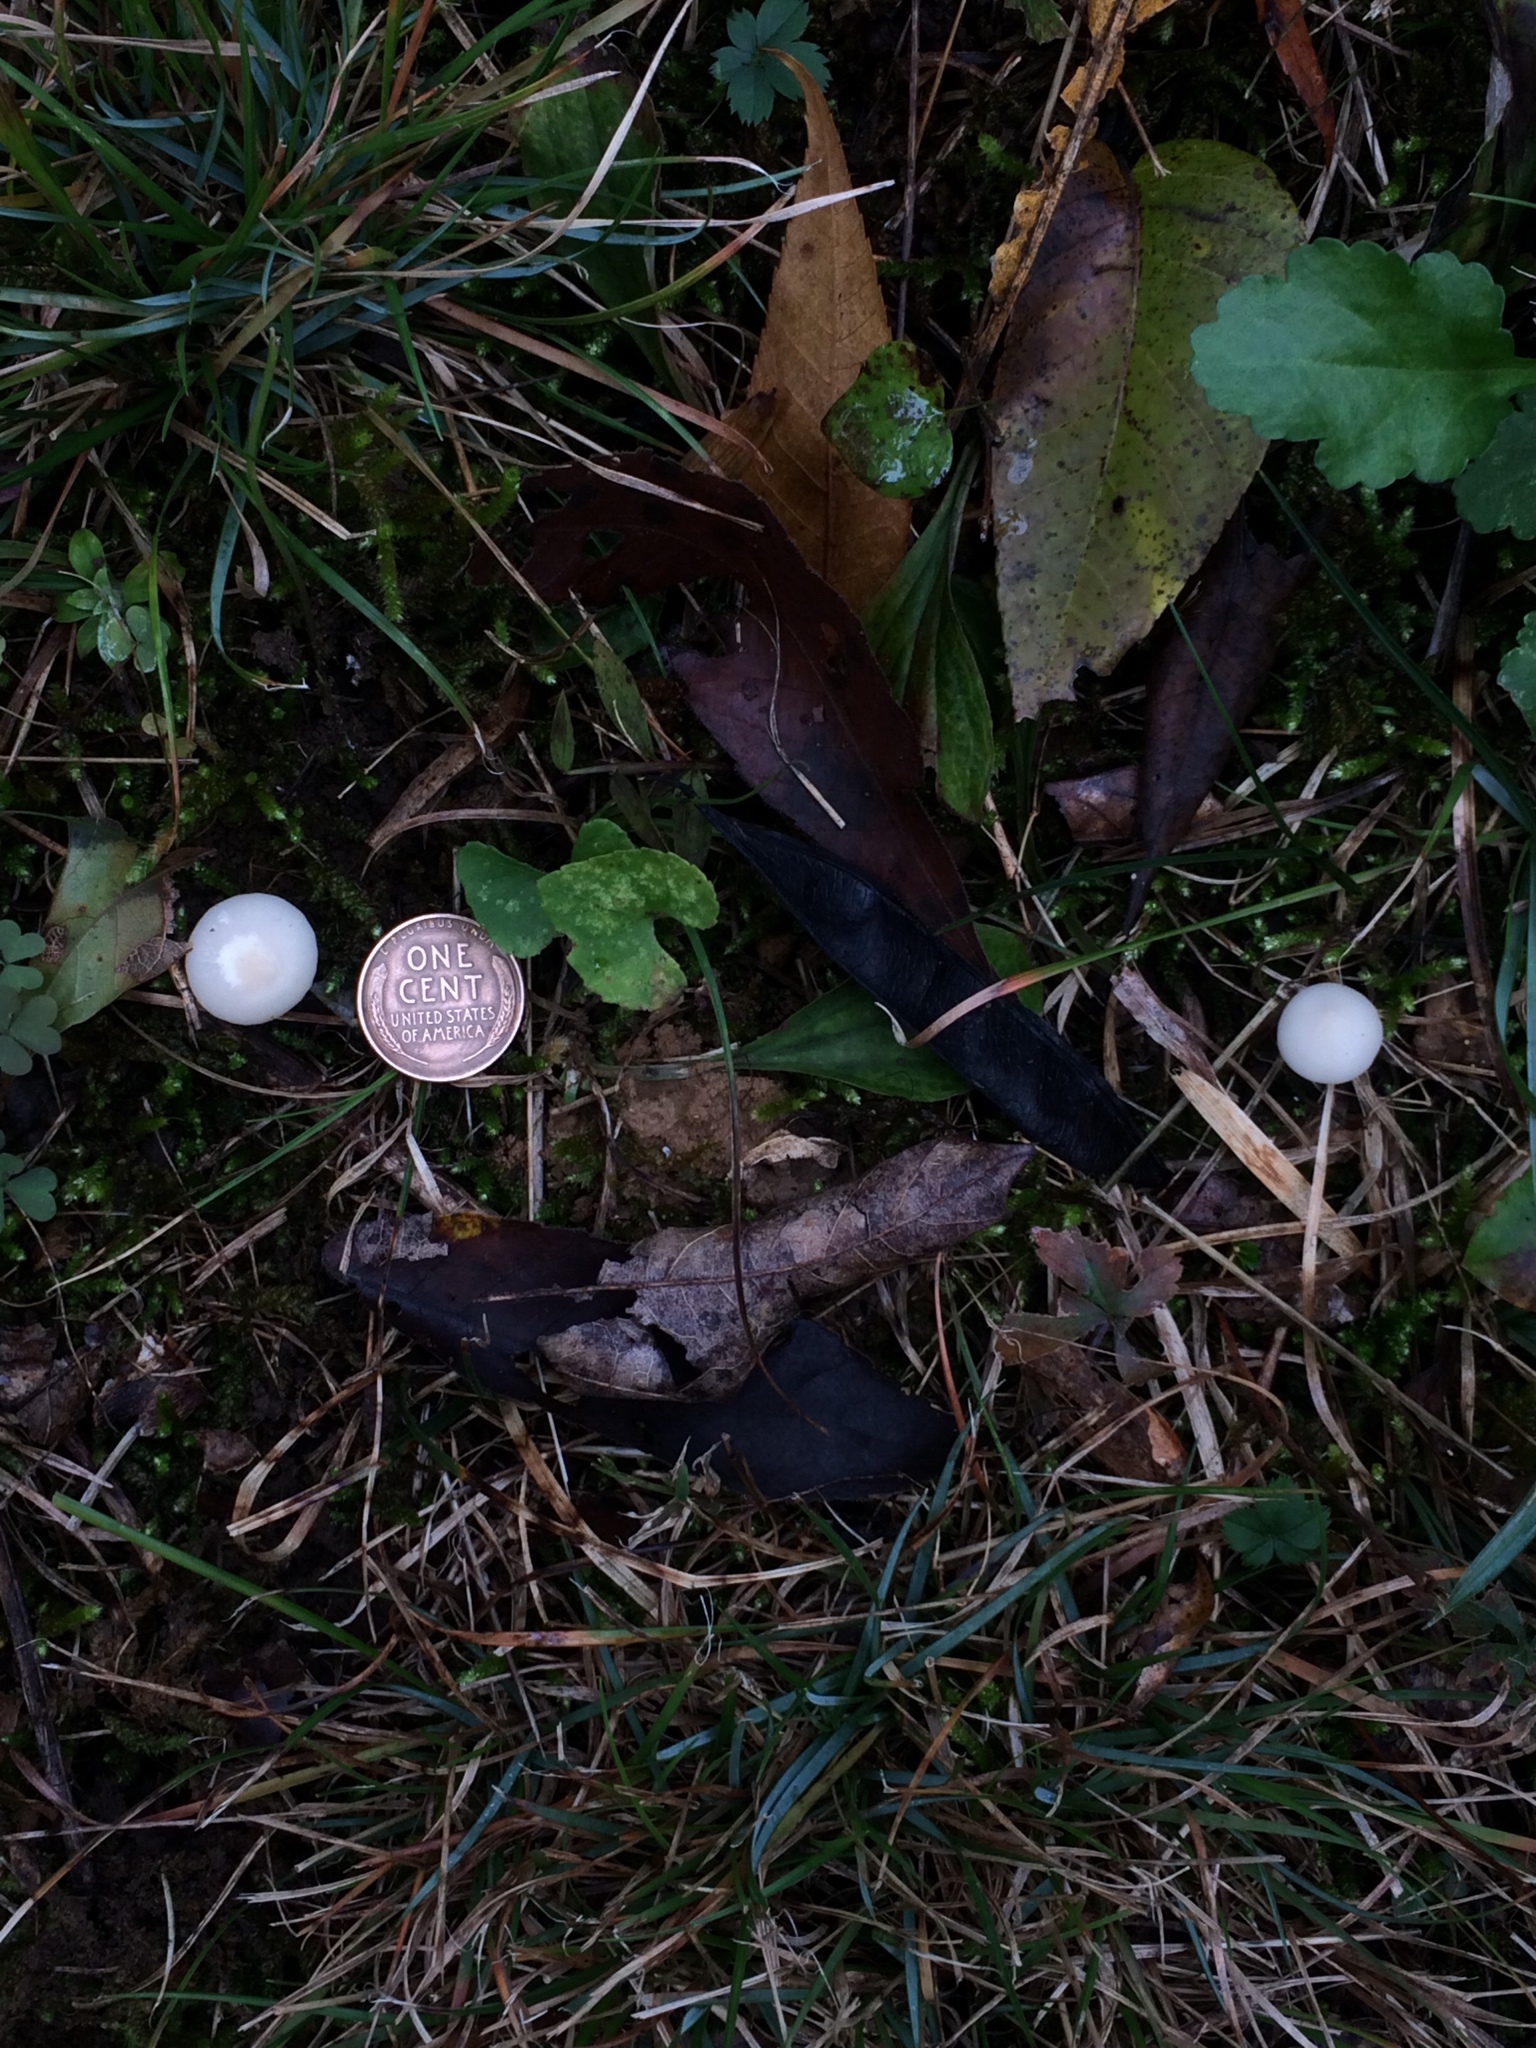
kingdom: Fungi
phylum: Basidiomycota
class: Agaricomycetes
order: Agaricales
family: Hygrophoraceae
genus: Cuphophyllus
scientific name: Cuphophyllus virgineus
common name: Snowy waxcap
